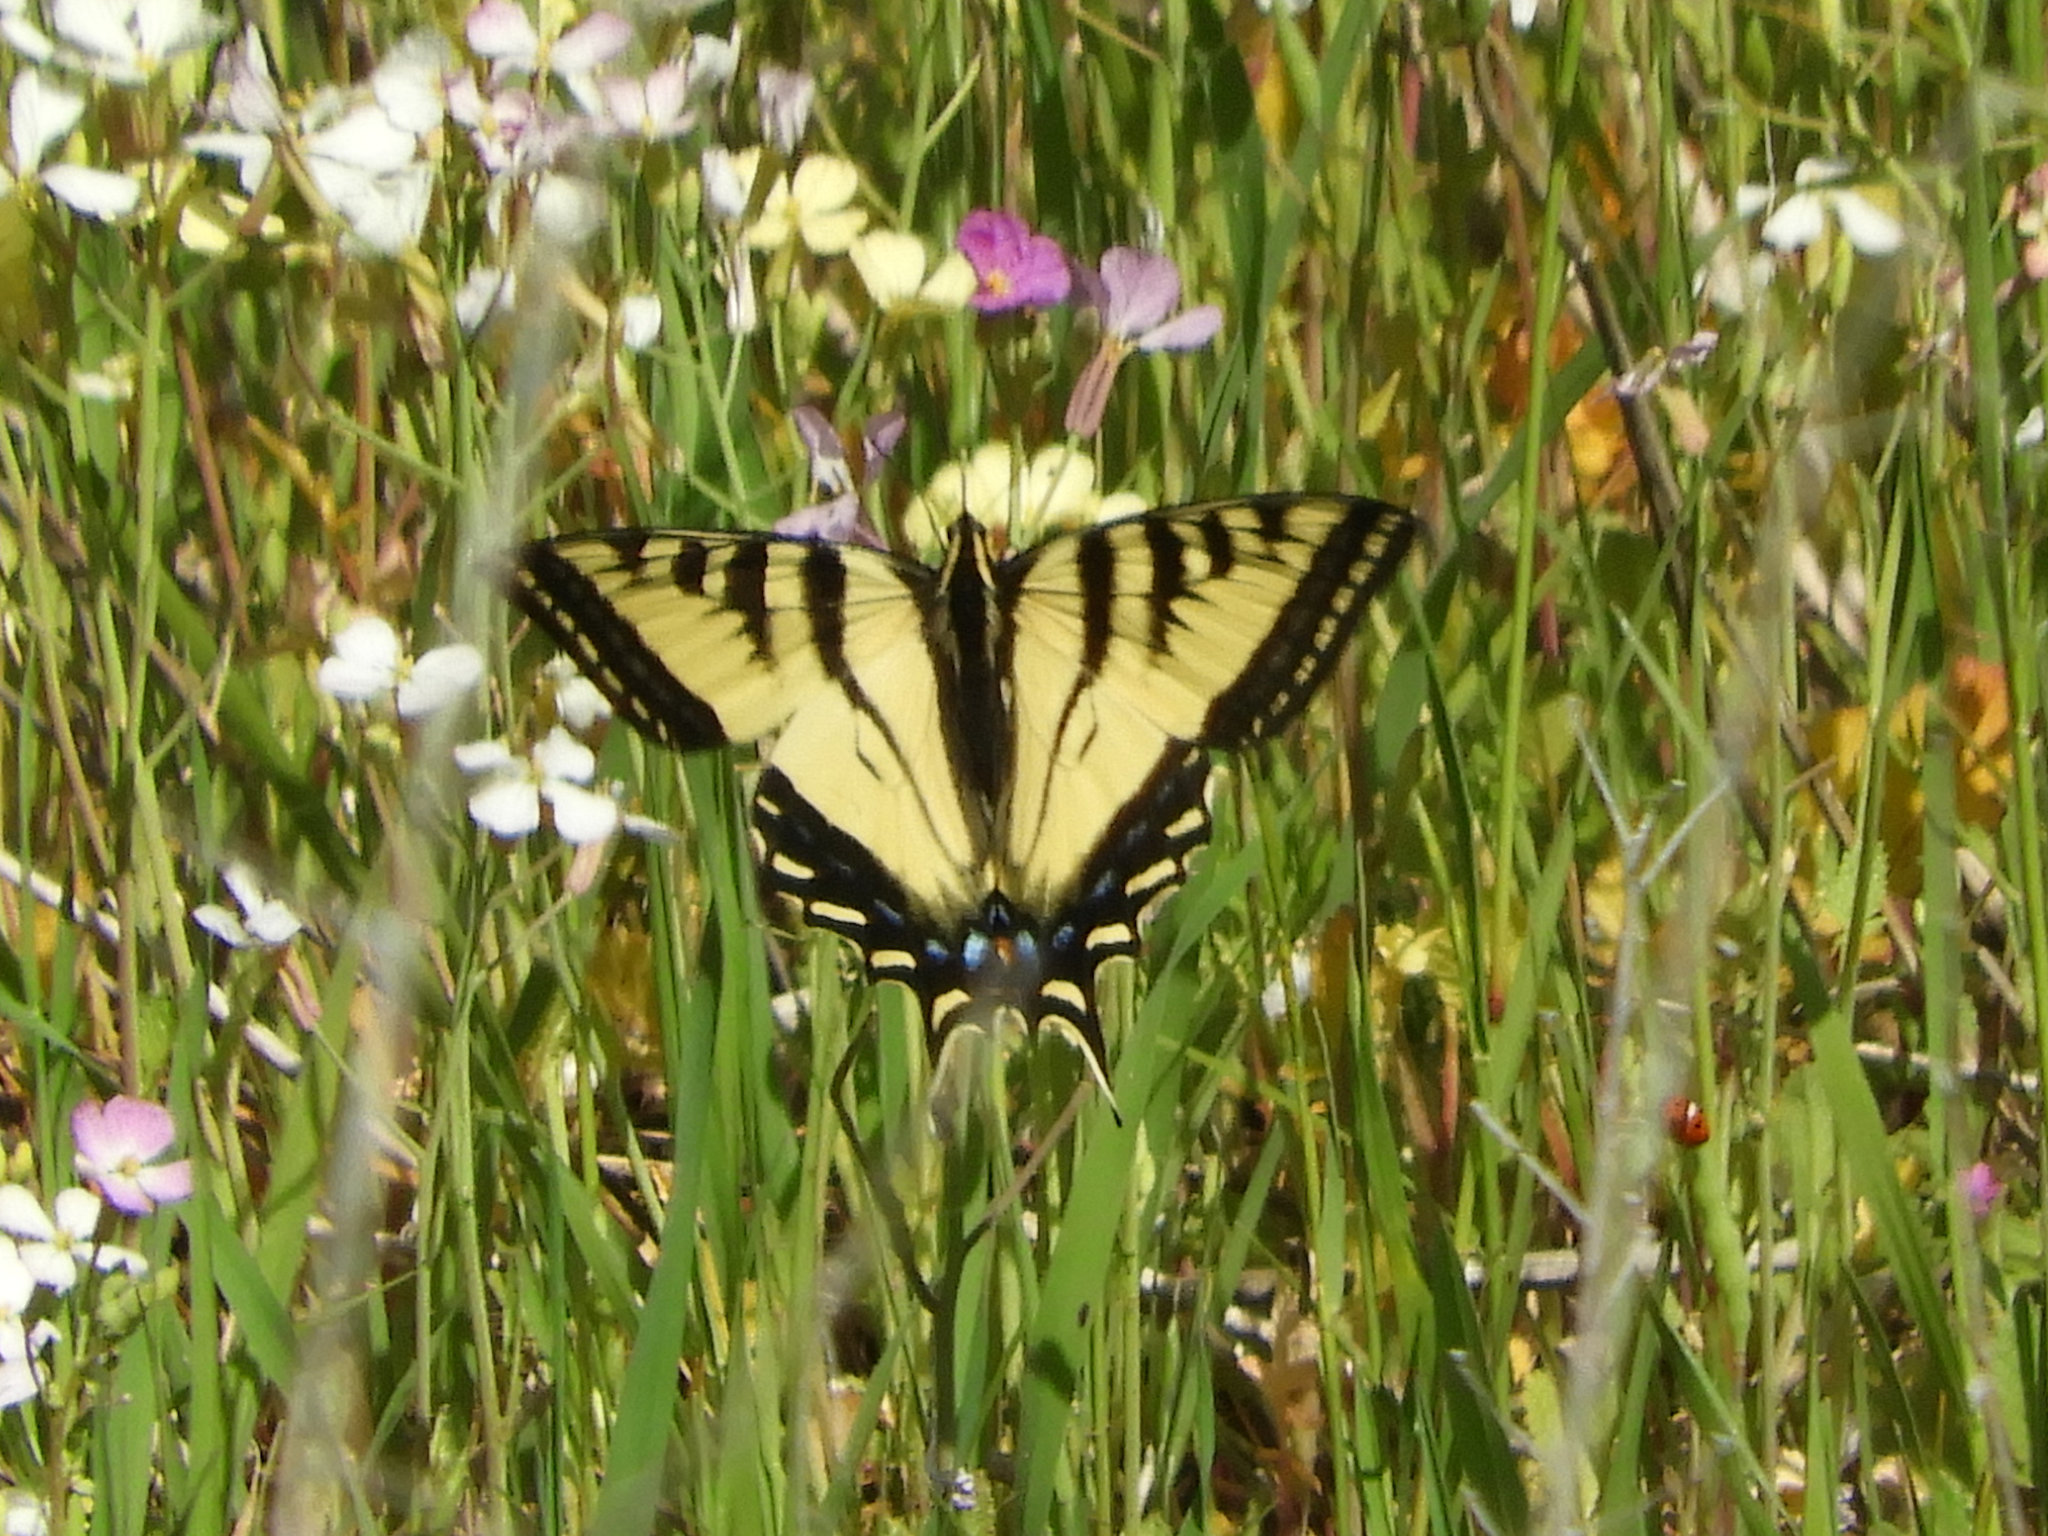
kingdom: Animalia
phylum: Arthropoda
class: Insecta
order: Lepidoptera
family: Papilionidae
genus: Papilio
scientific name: Papilio rutulus
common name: Western tiger swallowtail
